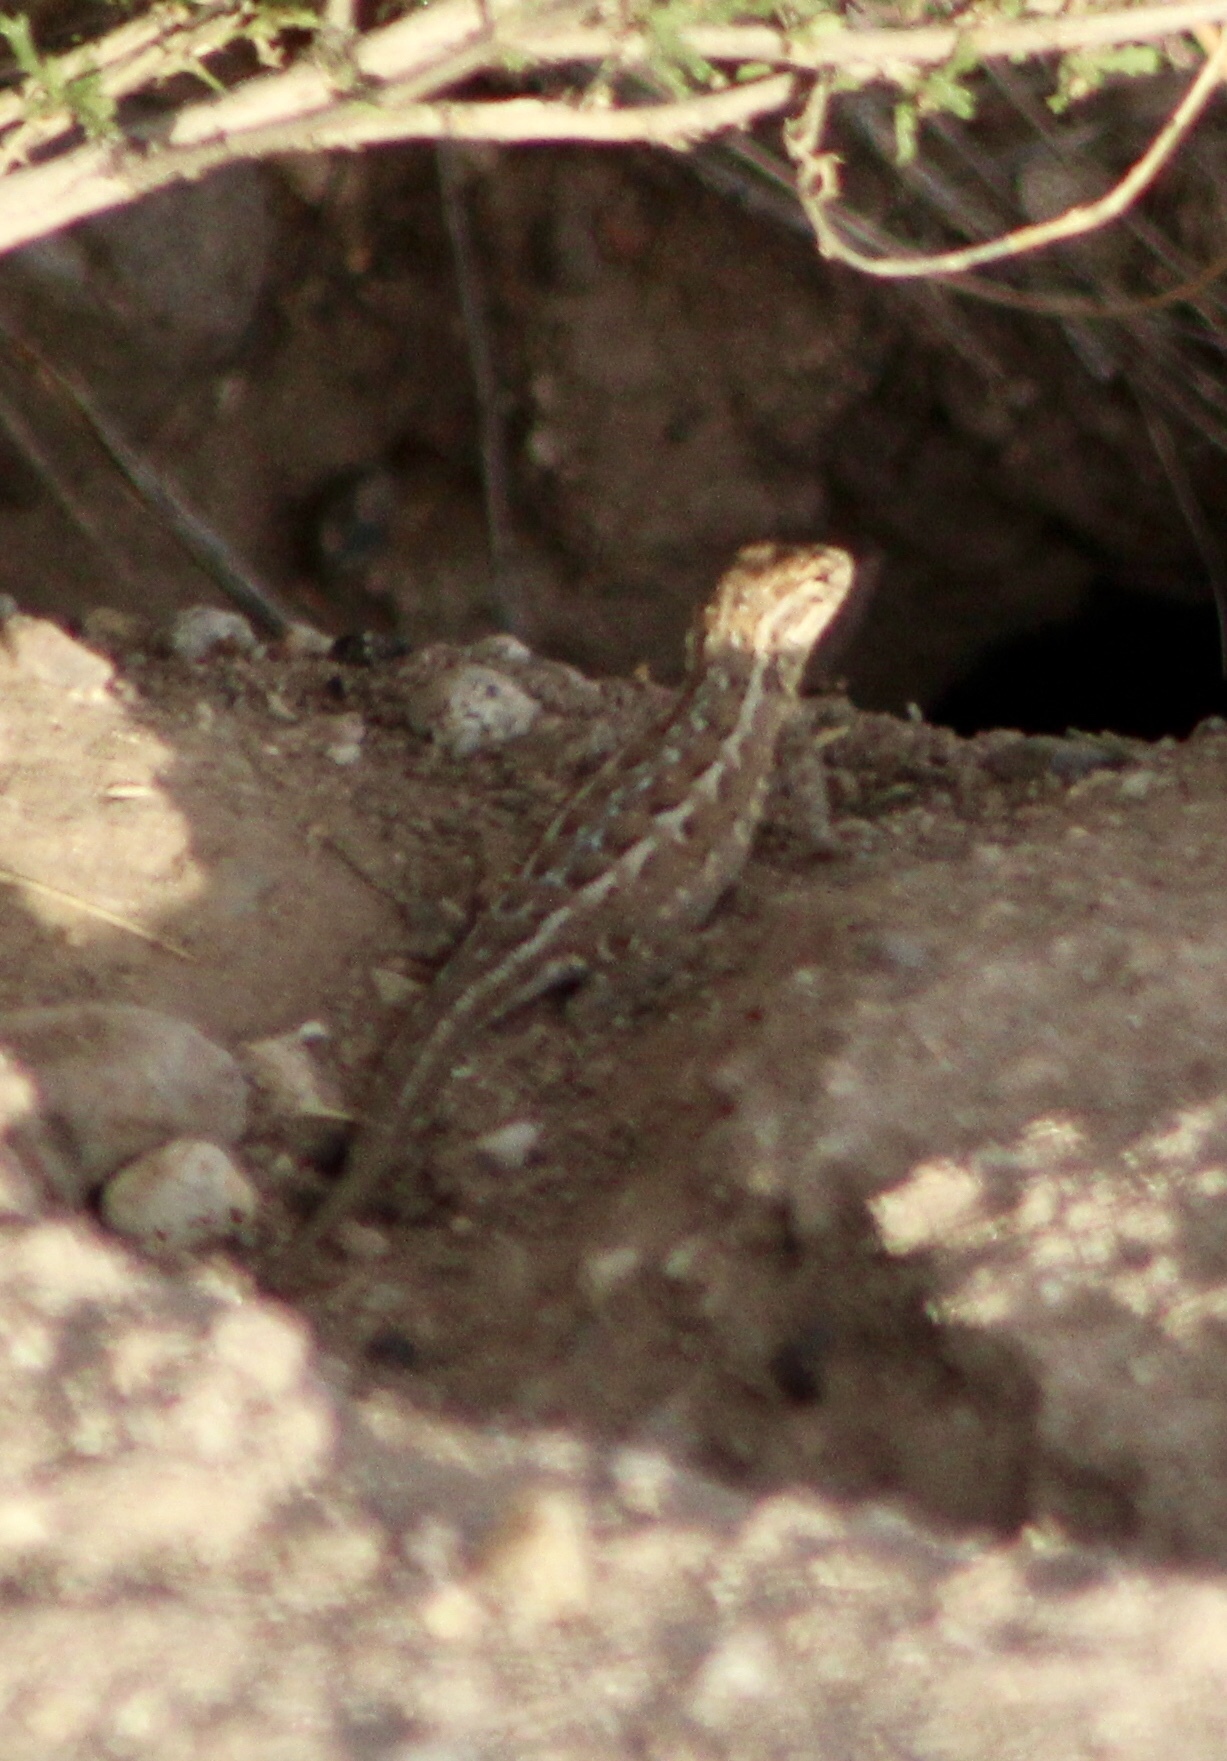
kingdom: Animalia
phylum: Chordata
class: Squamata
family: Phrynosomatidae
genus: Uta
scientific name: Uta stansburiana
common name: Side-blotched lizard
